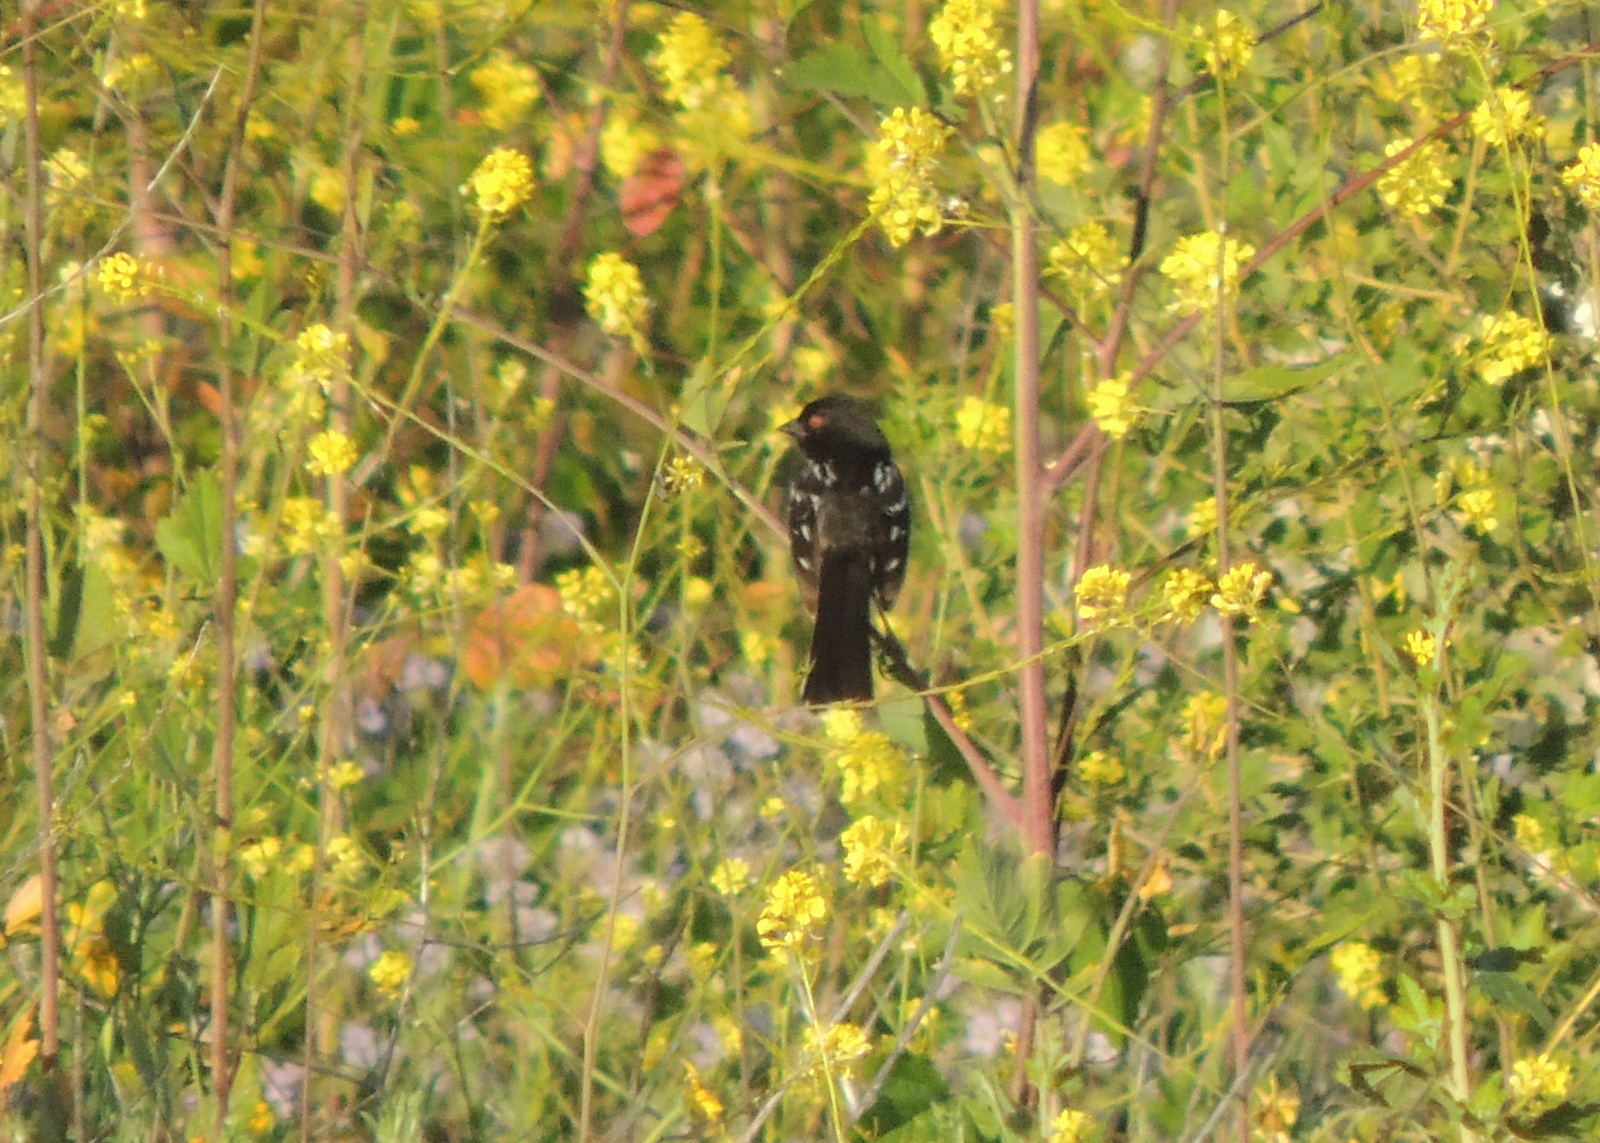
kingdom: Animalia
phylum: Chordata
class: Aves
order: Passeriformes
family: Passerellidae
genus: Pipilo
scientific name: Pipilo maculatus
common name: Spotted towhee
